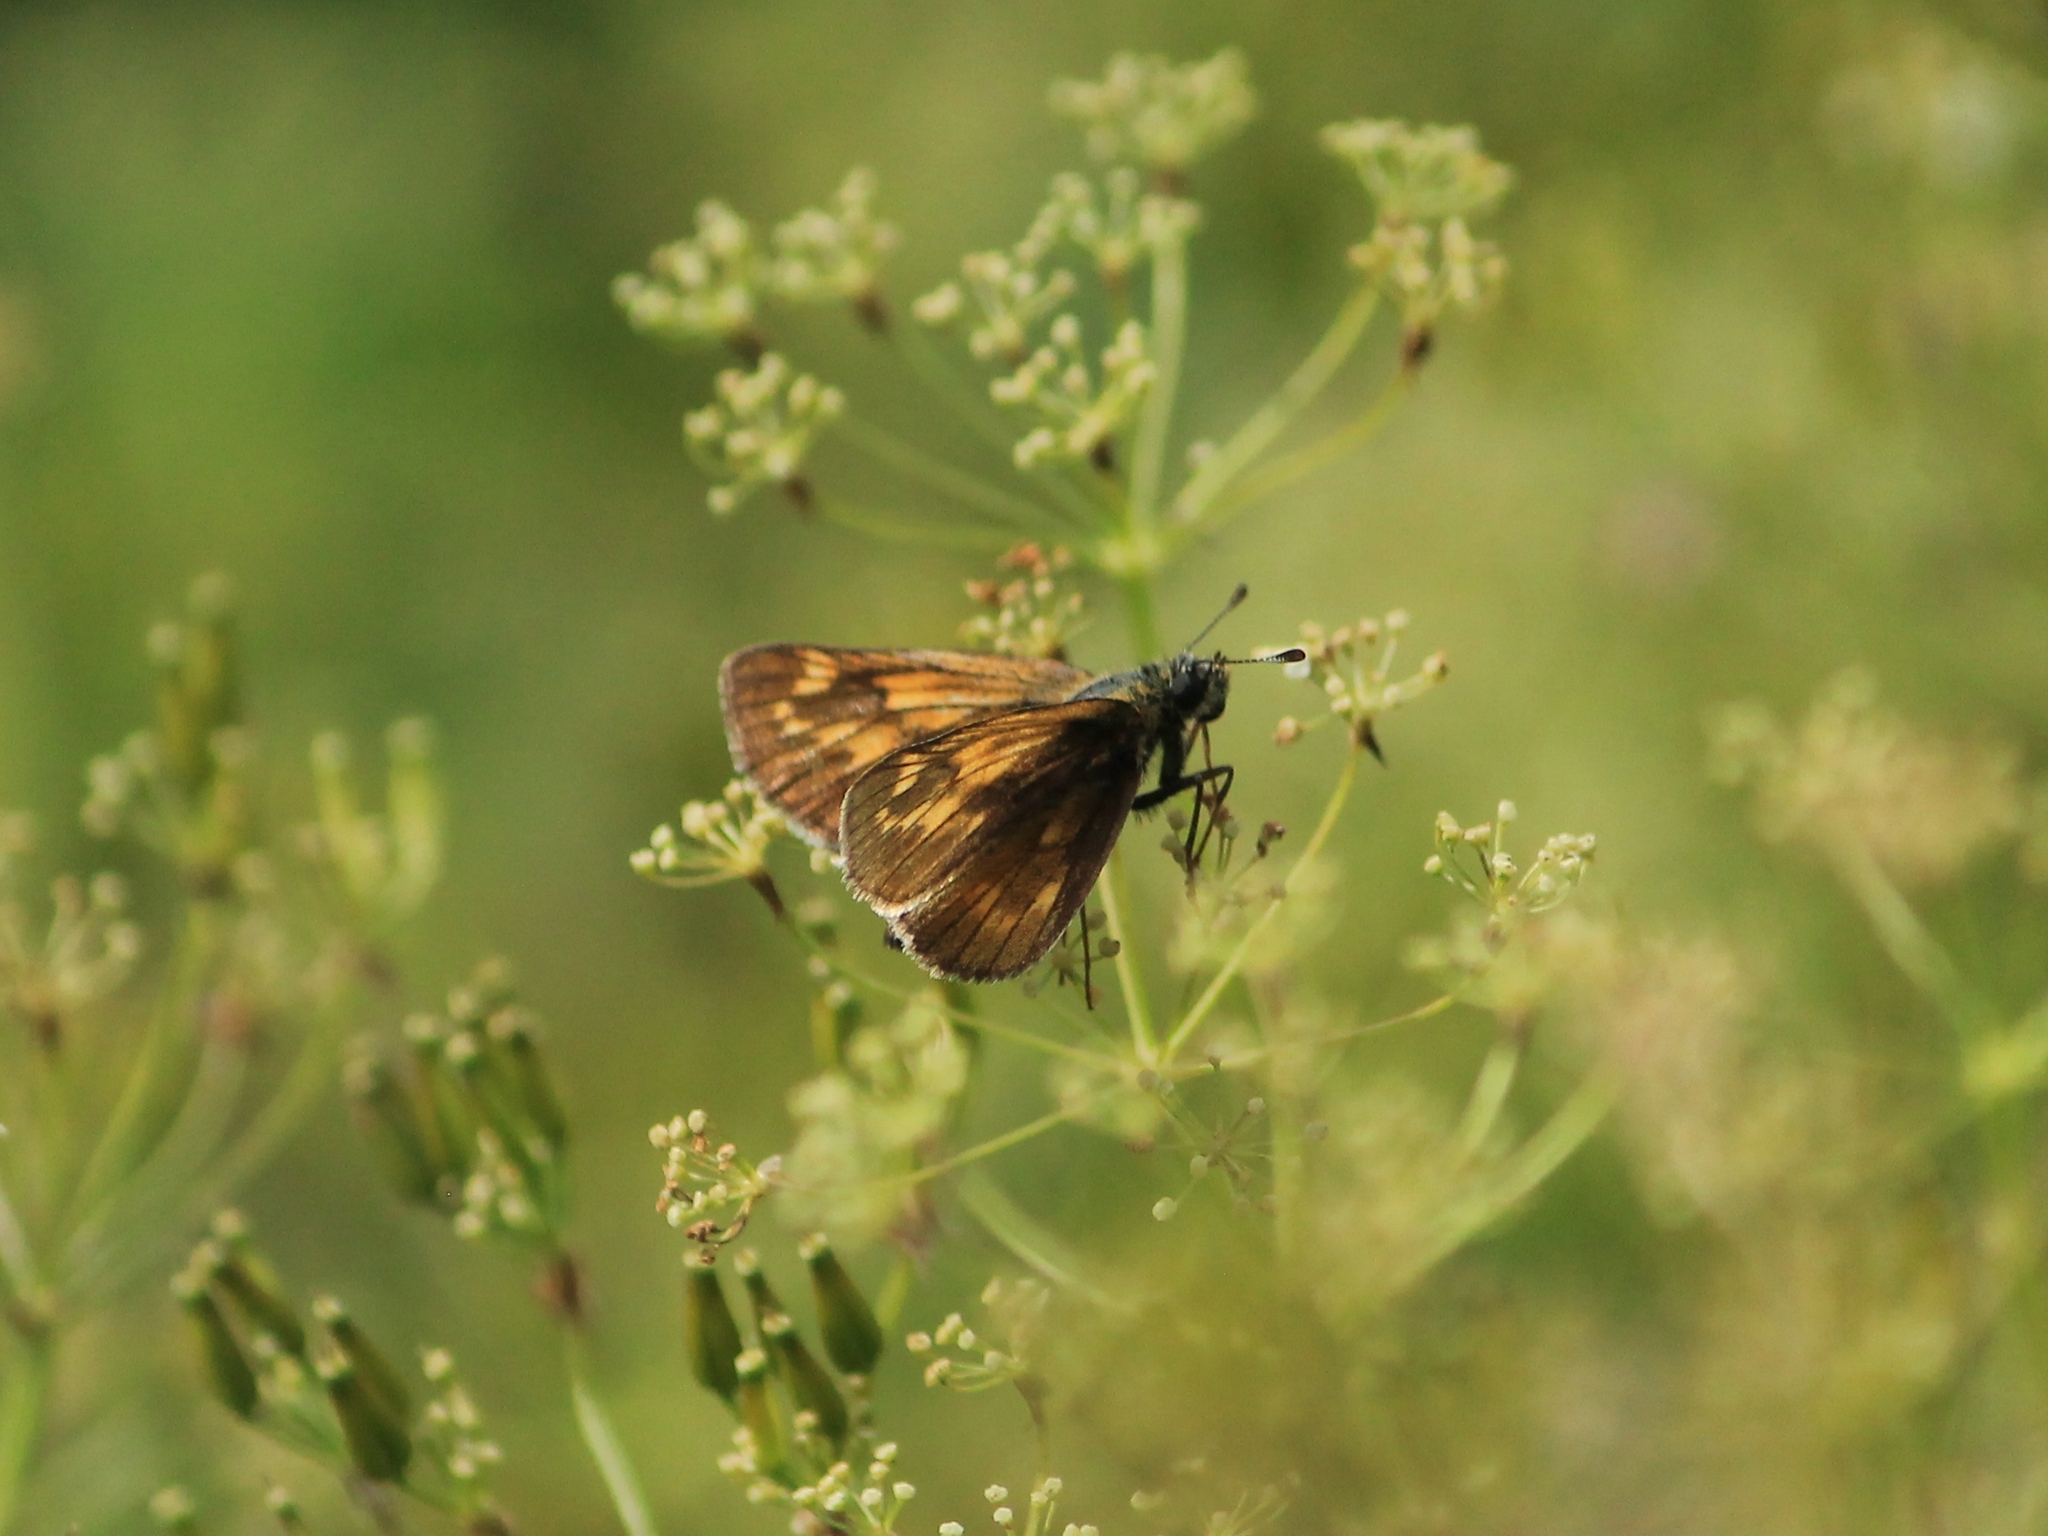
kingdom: Animalia
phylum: Arthropoda
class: Insecta
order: Lepidoptera
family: Hesperiidae
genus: Ochlodes
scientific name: Ochlodes venata
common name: Large skipper
